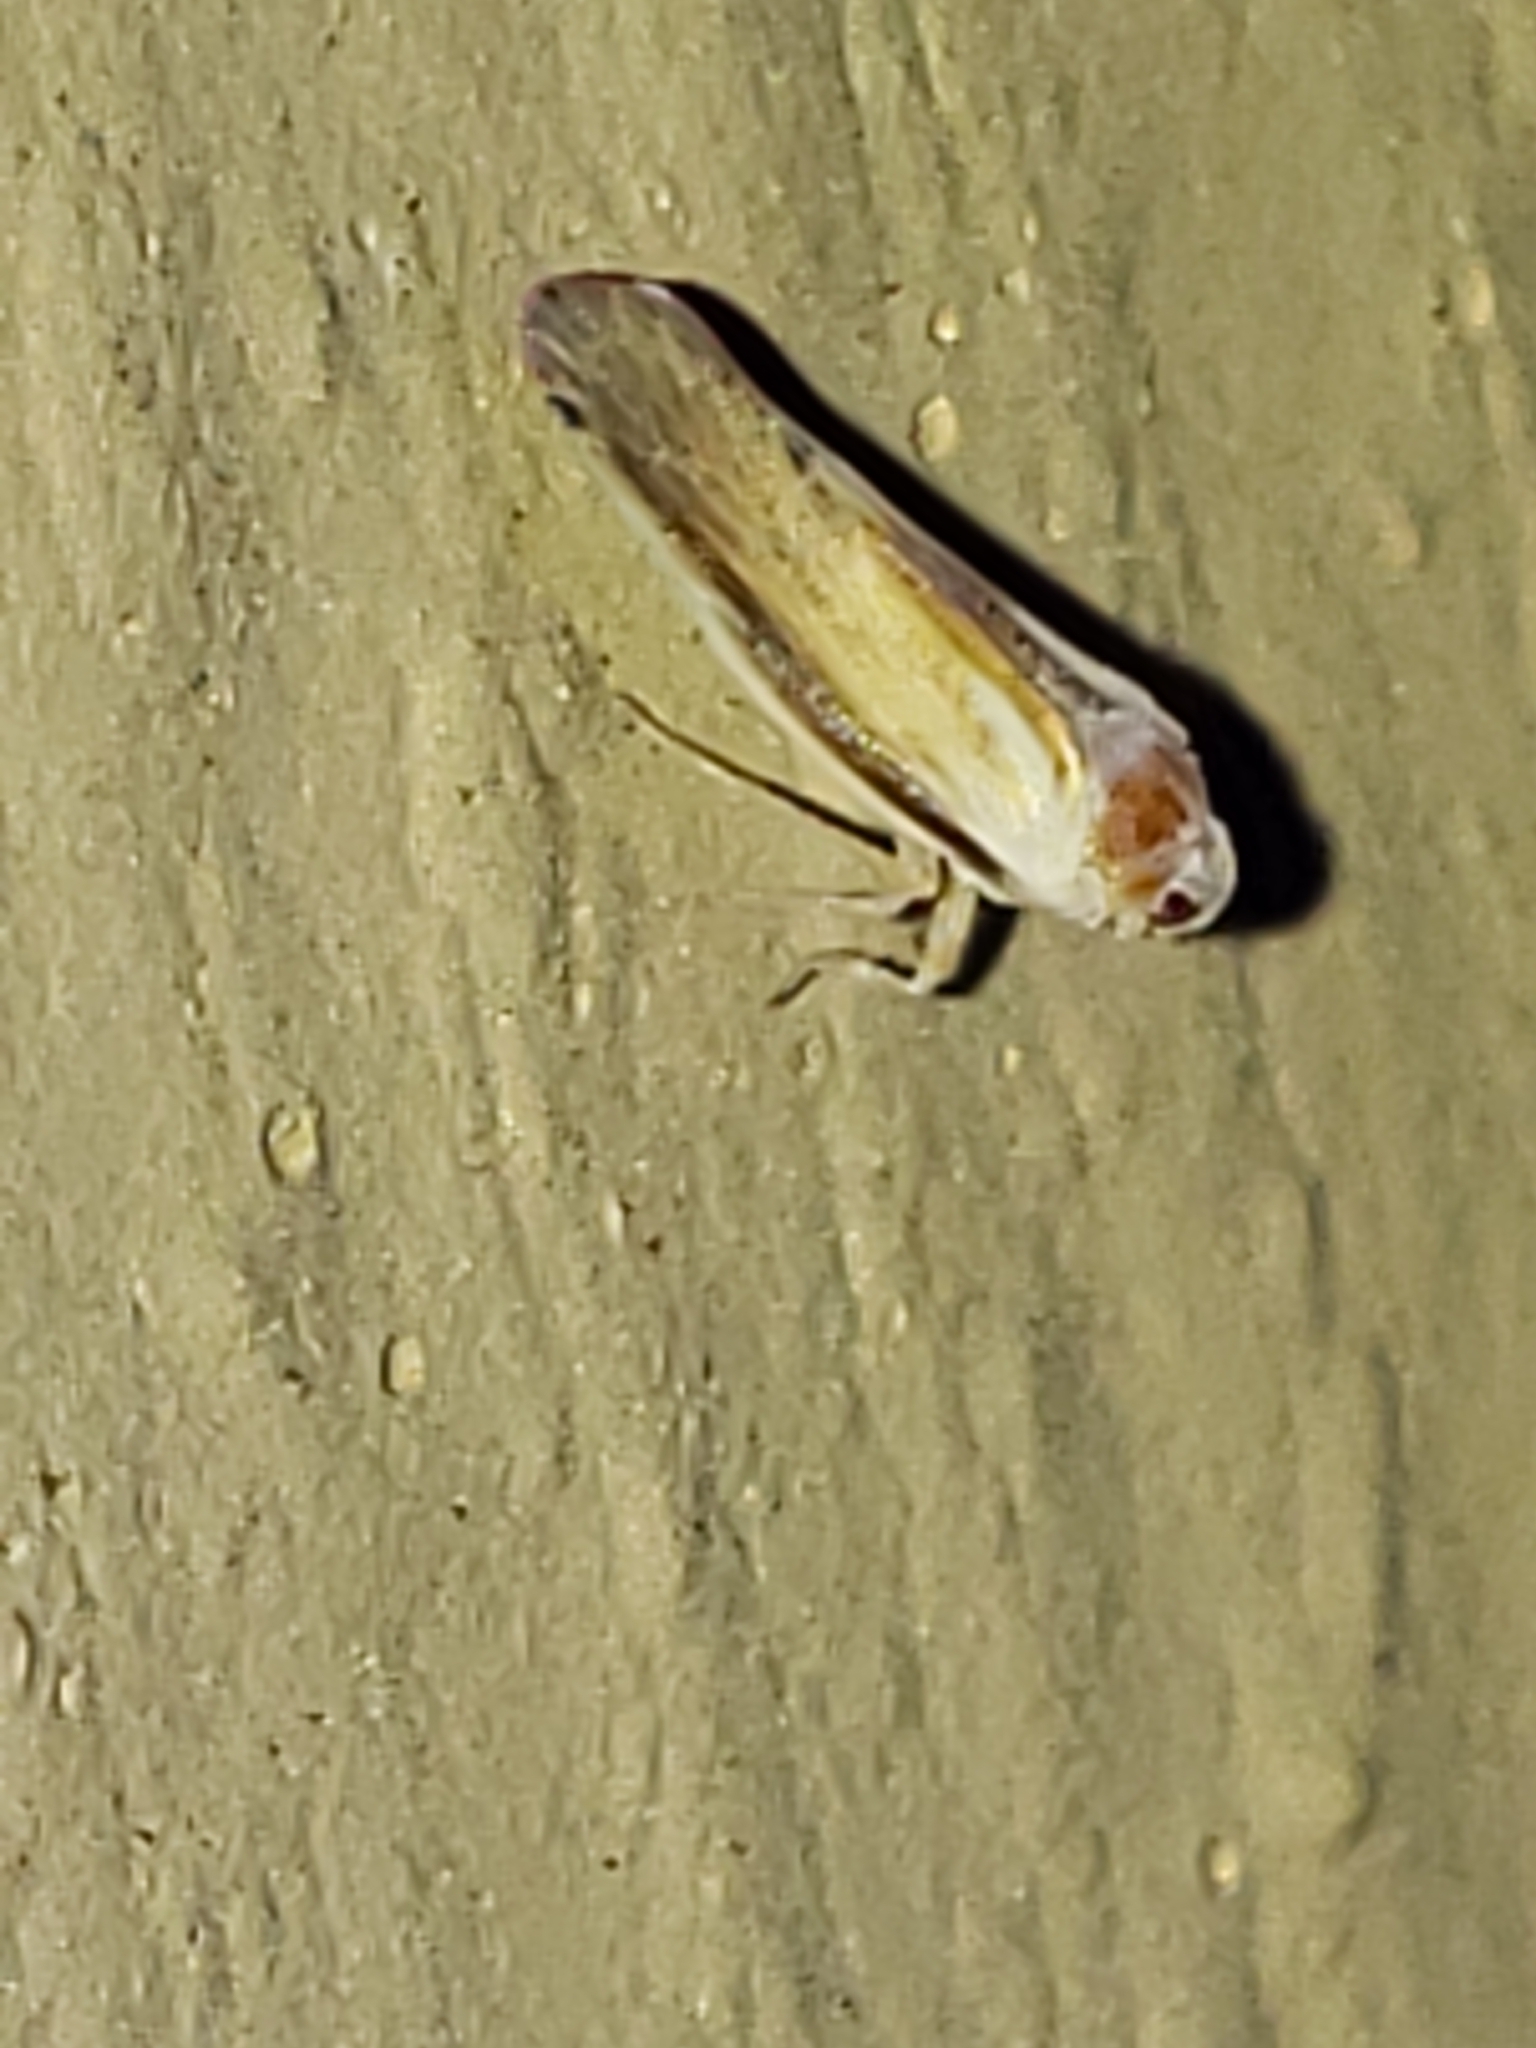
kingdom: Animalia
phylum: Arthropoda
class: Insecta
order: Hemiptera
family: Derbidae
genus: Omolicna
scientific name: Omolicna uhleri
